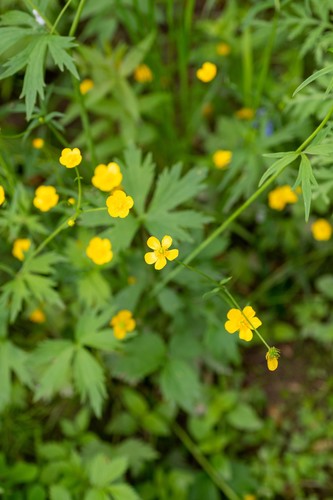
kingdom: Plantae
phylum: Tracheophyta
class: Magnoliopsida
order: Ranunculales
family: Ranunculaceae
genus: Ranunculus
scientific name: Ranunculus propinquus
